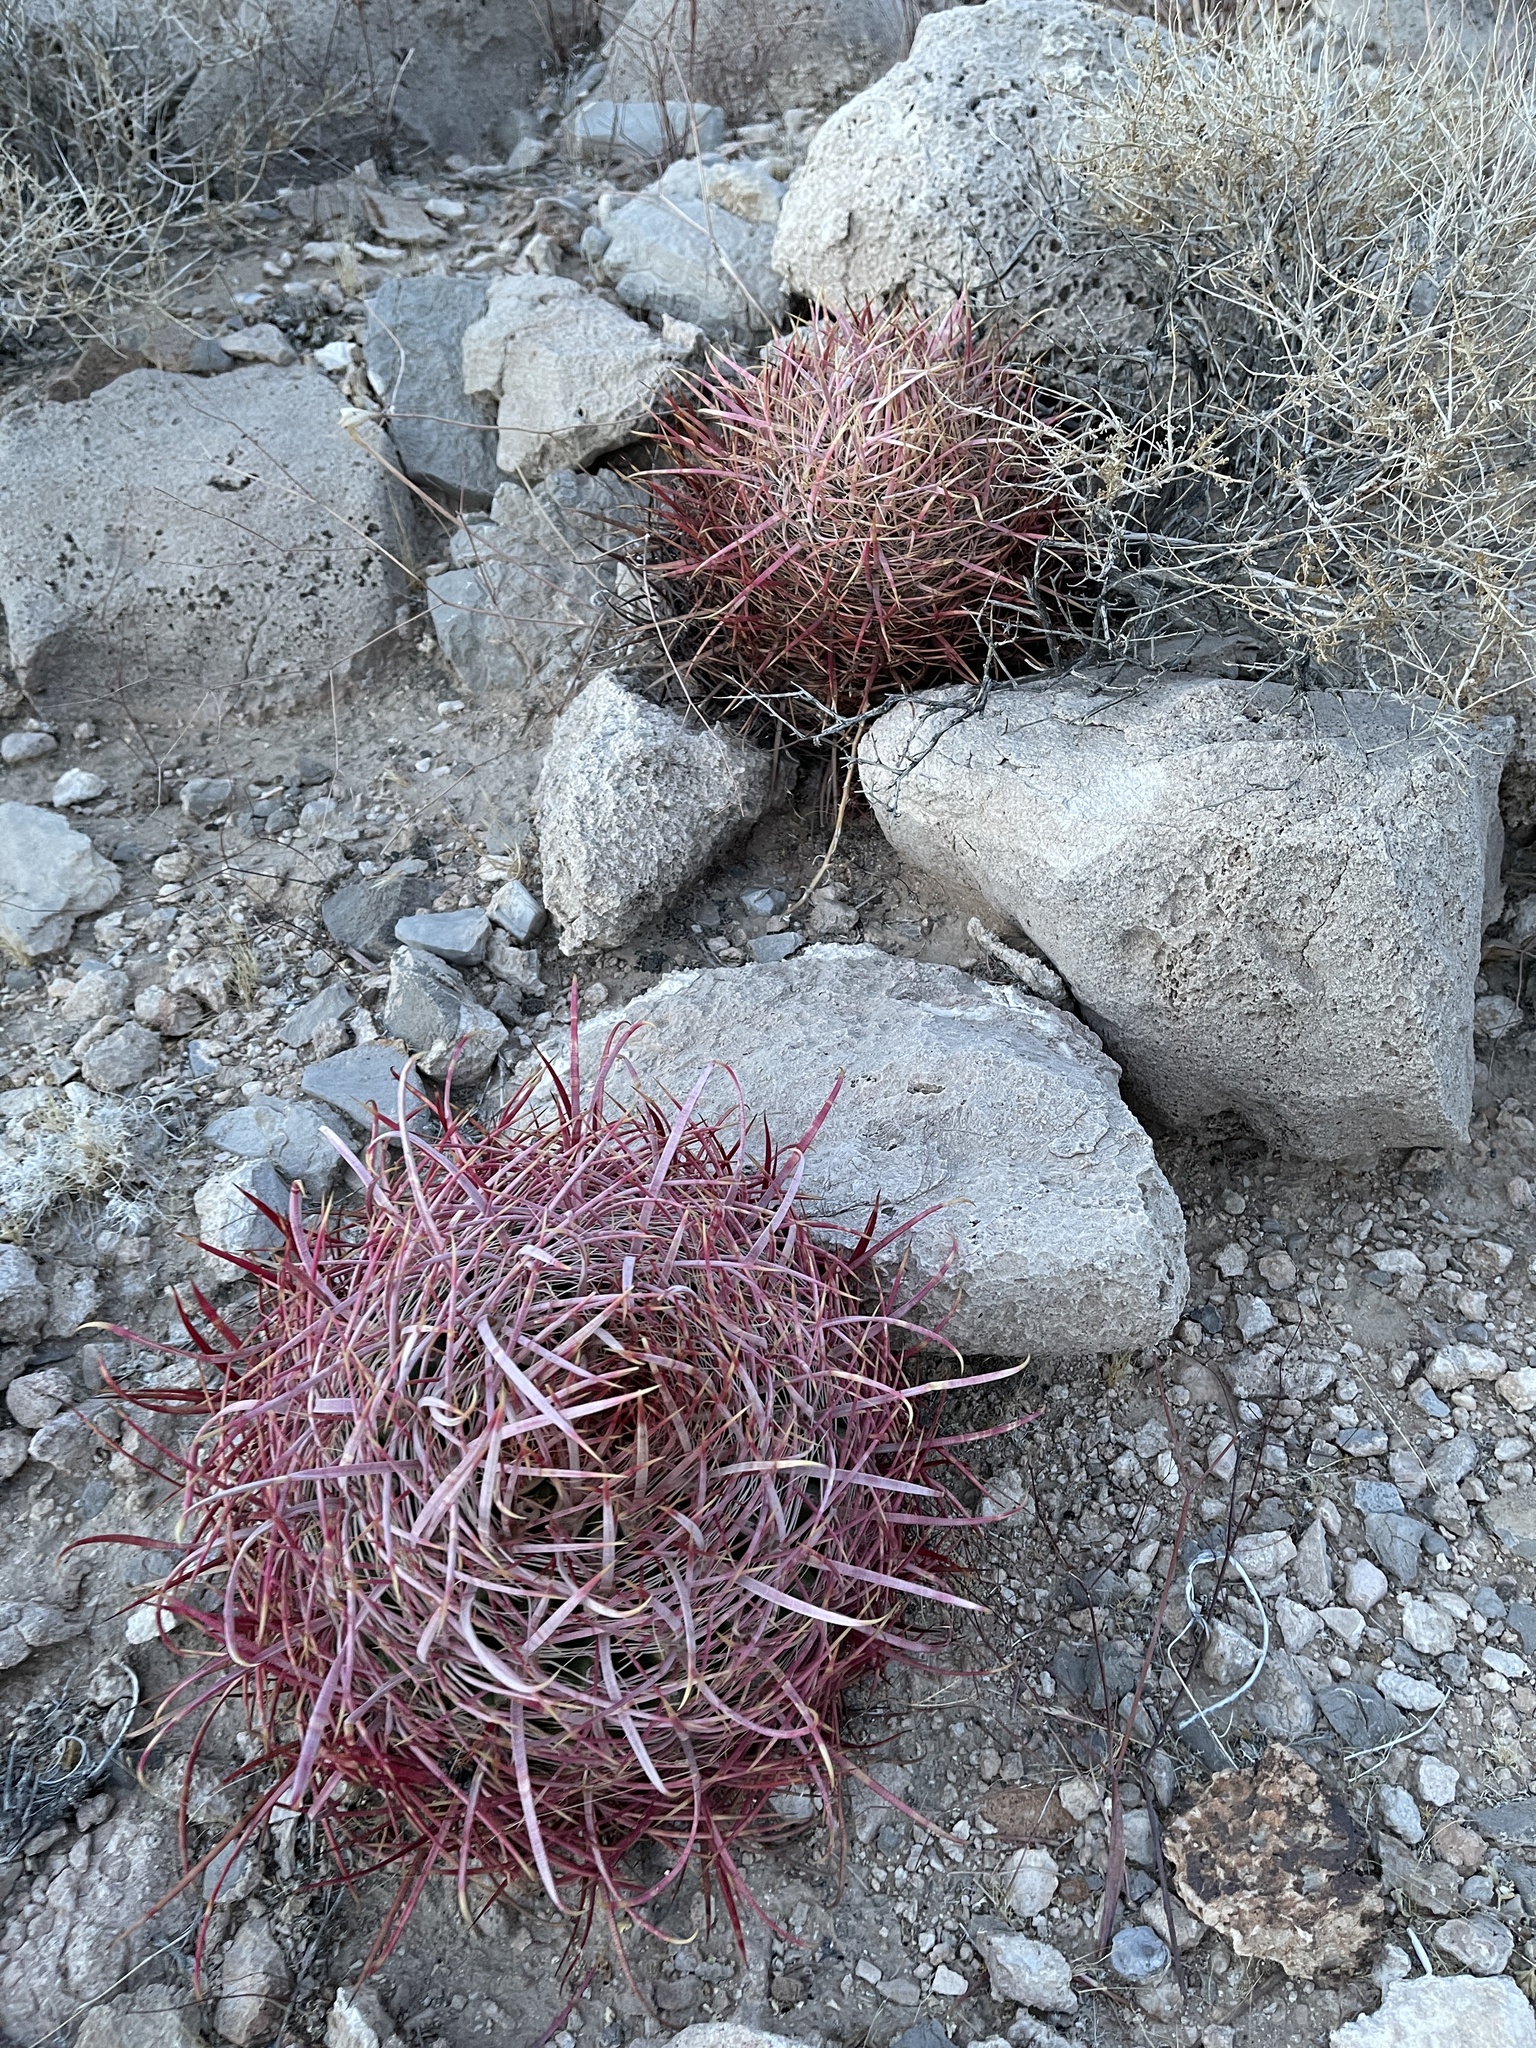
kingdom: Plantae
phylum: Tracheophyta
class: Magnoliopsida
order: Caryophyllales
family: Cactaceae
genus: Echinocactus
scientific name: Echinocactus polycephalus
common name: Cottontop cactus
